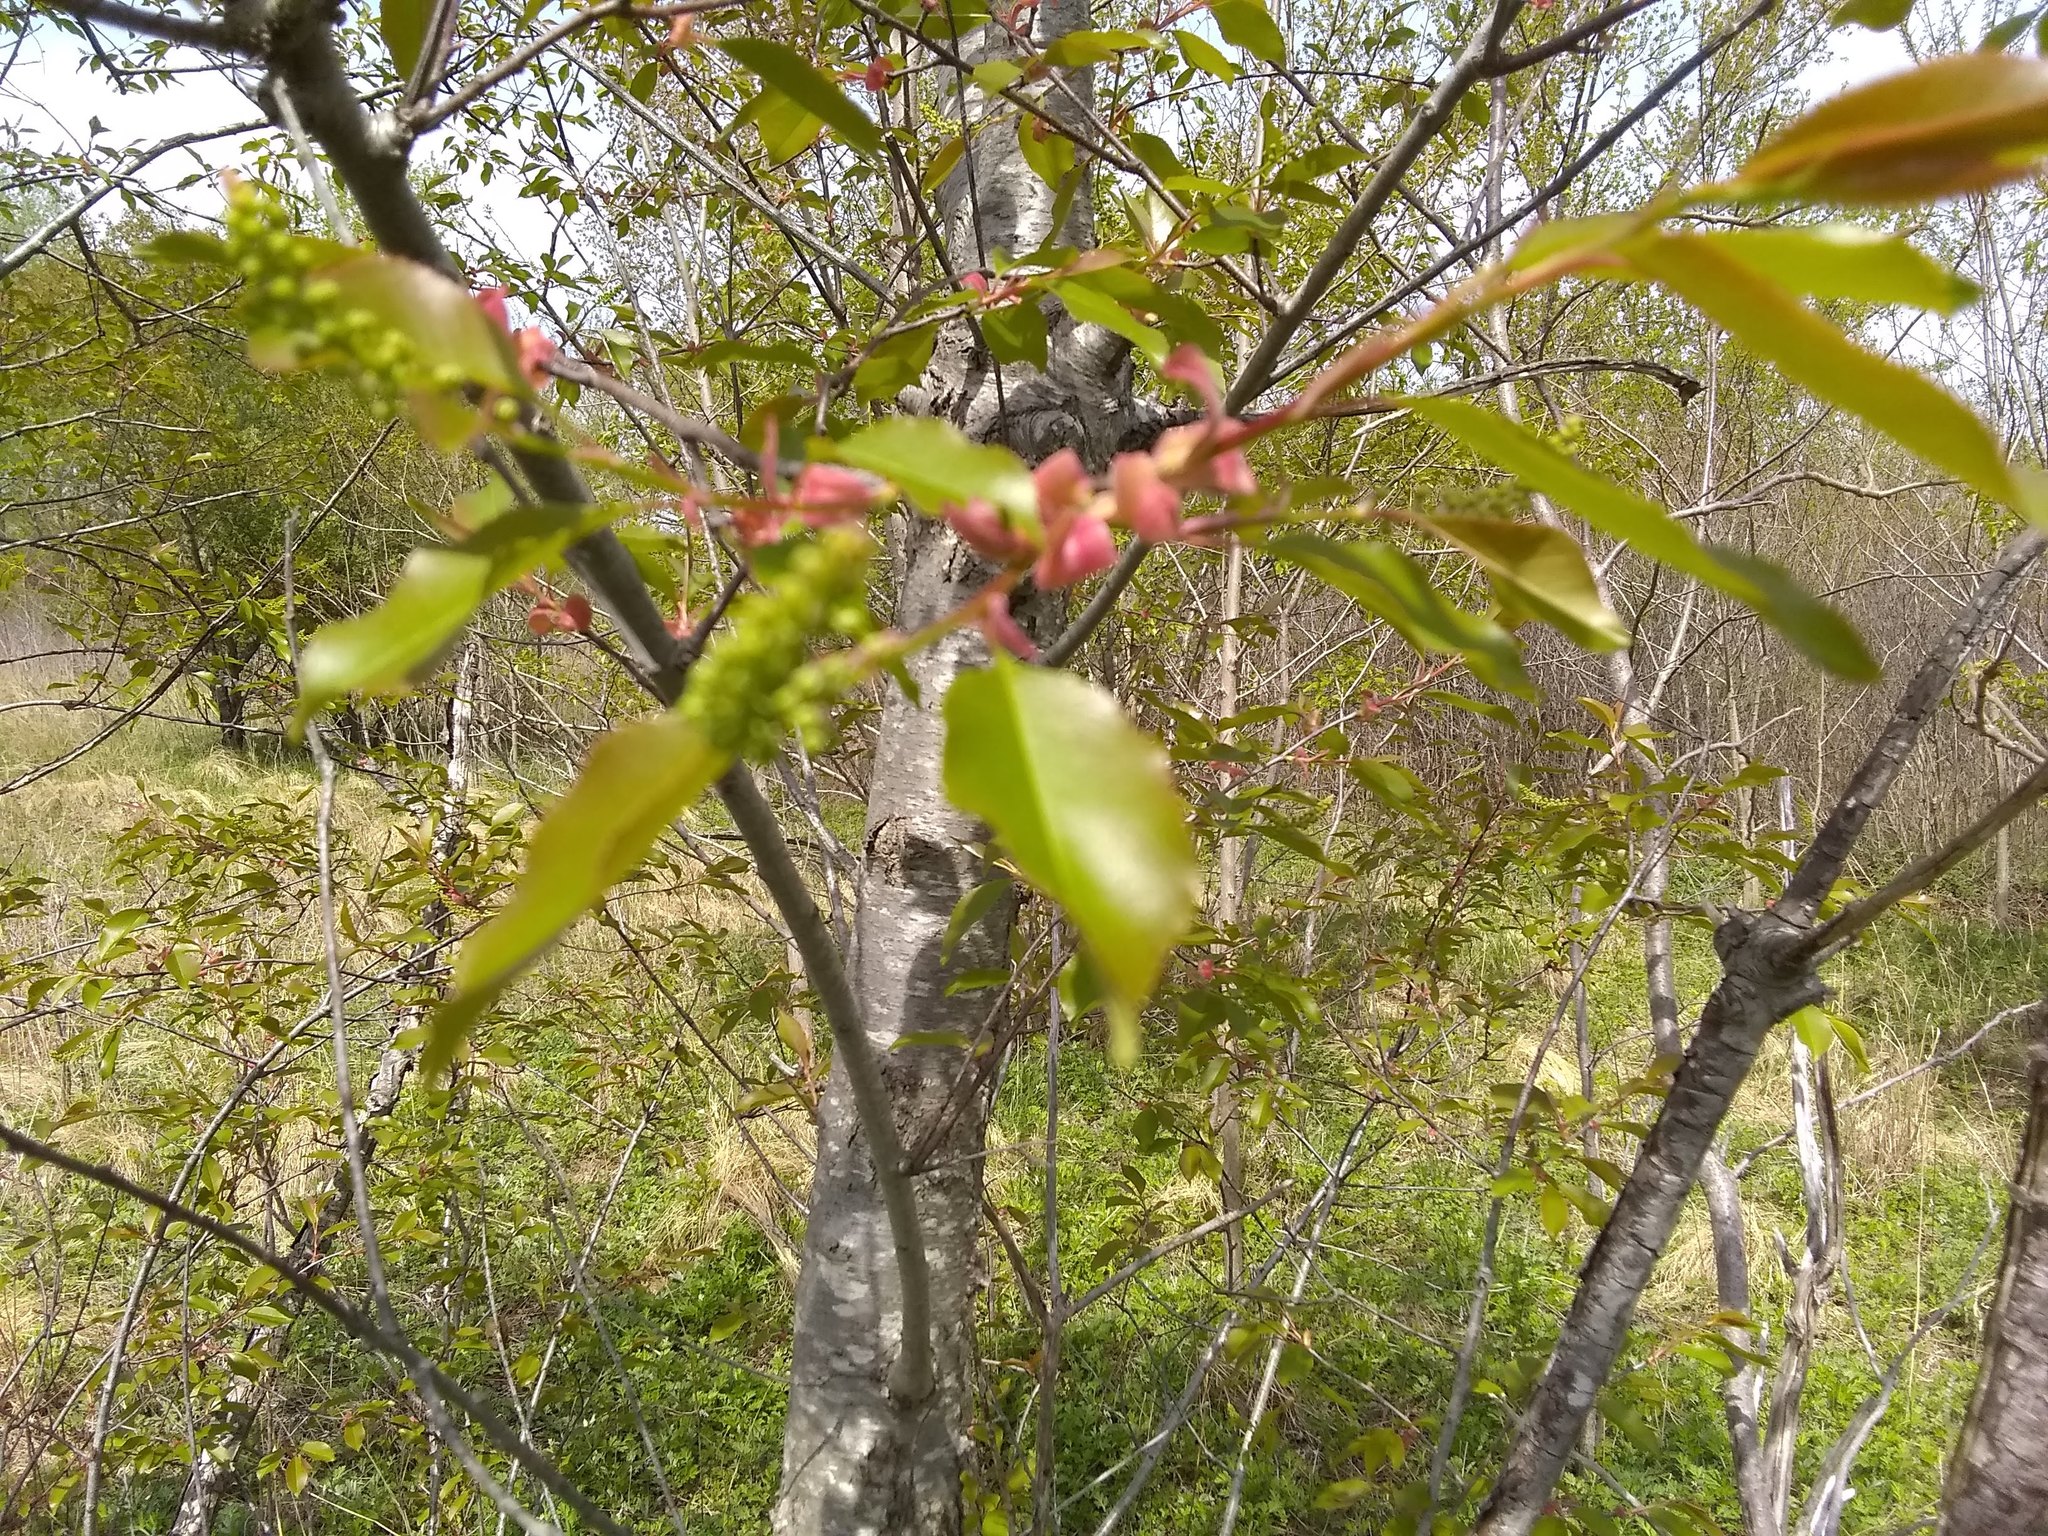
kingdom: Plantae
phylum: Tracheophyta
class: Magnoliopsida
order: Rosales
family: Rosaceae
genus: Prunus
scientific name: Prunus serotina
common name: Black cherry
